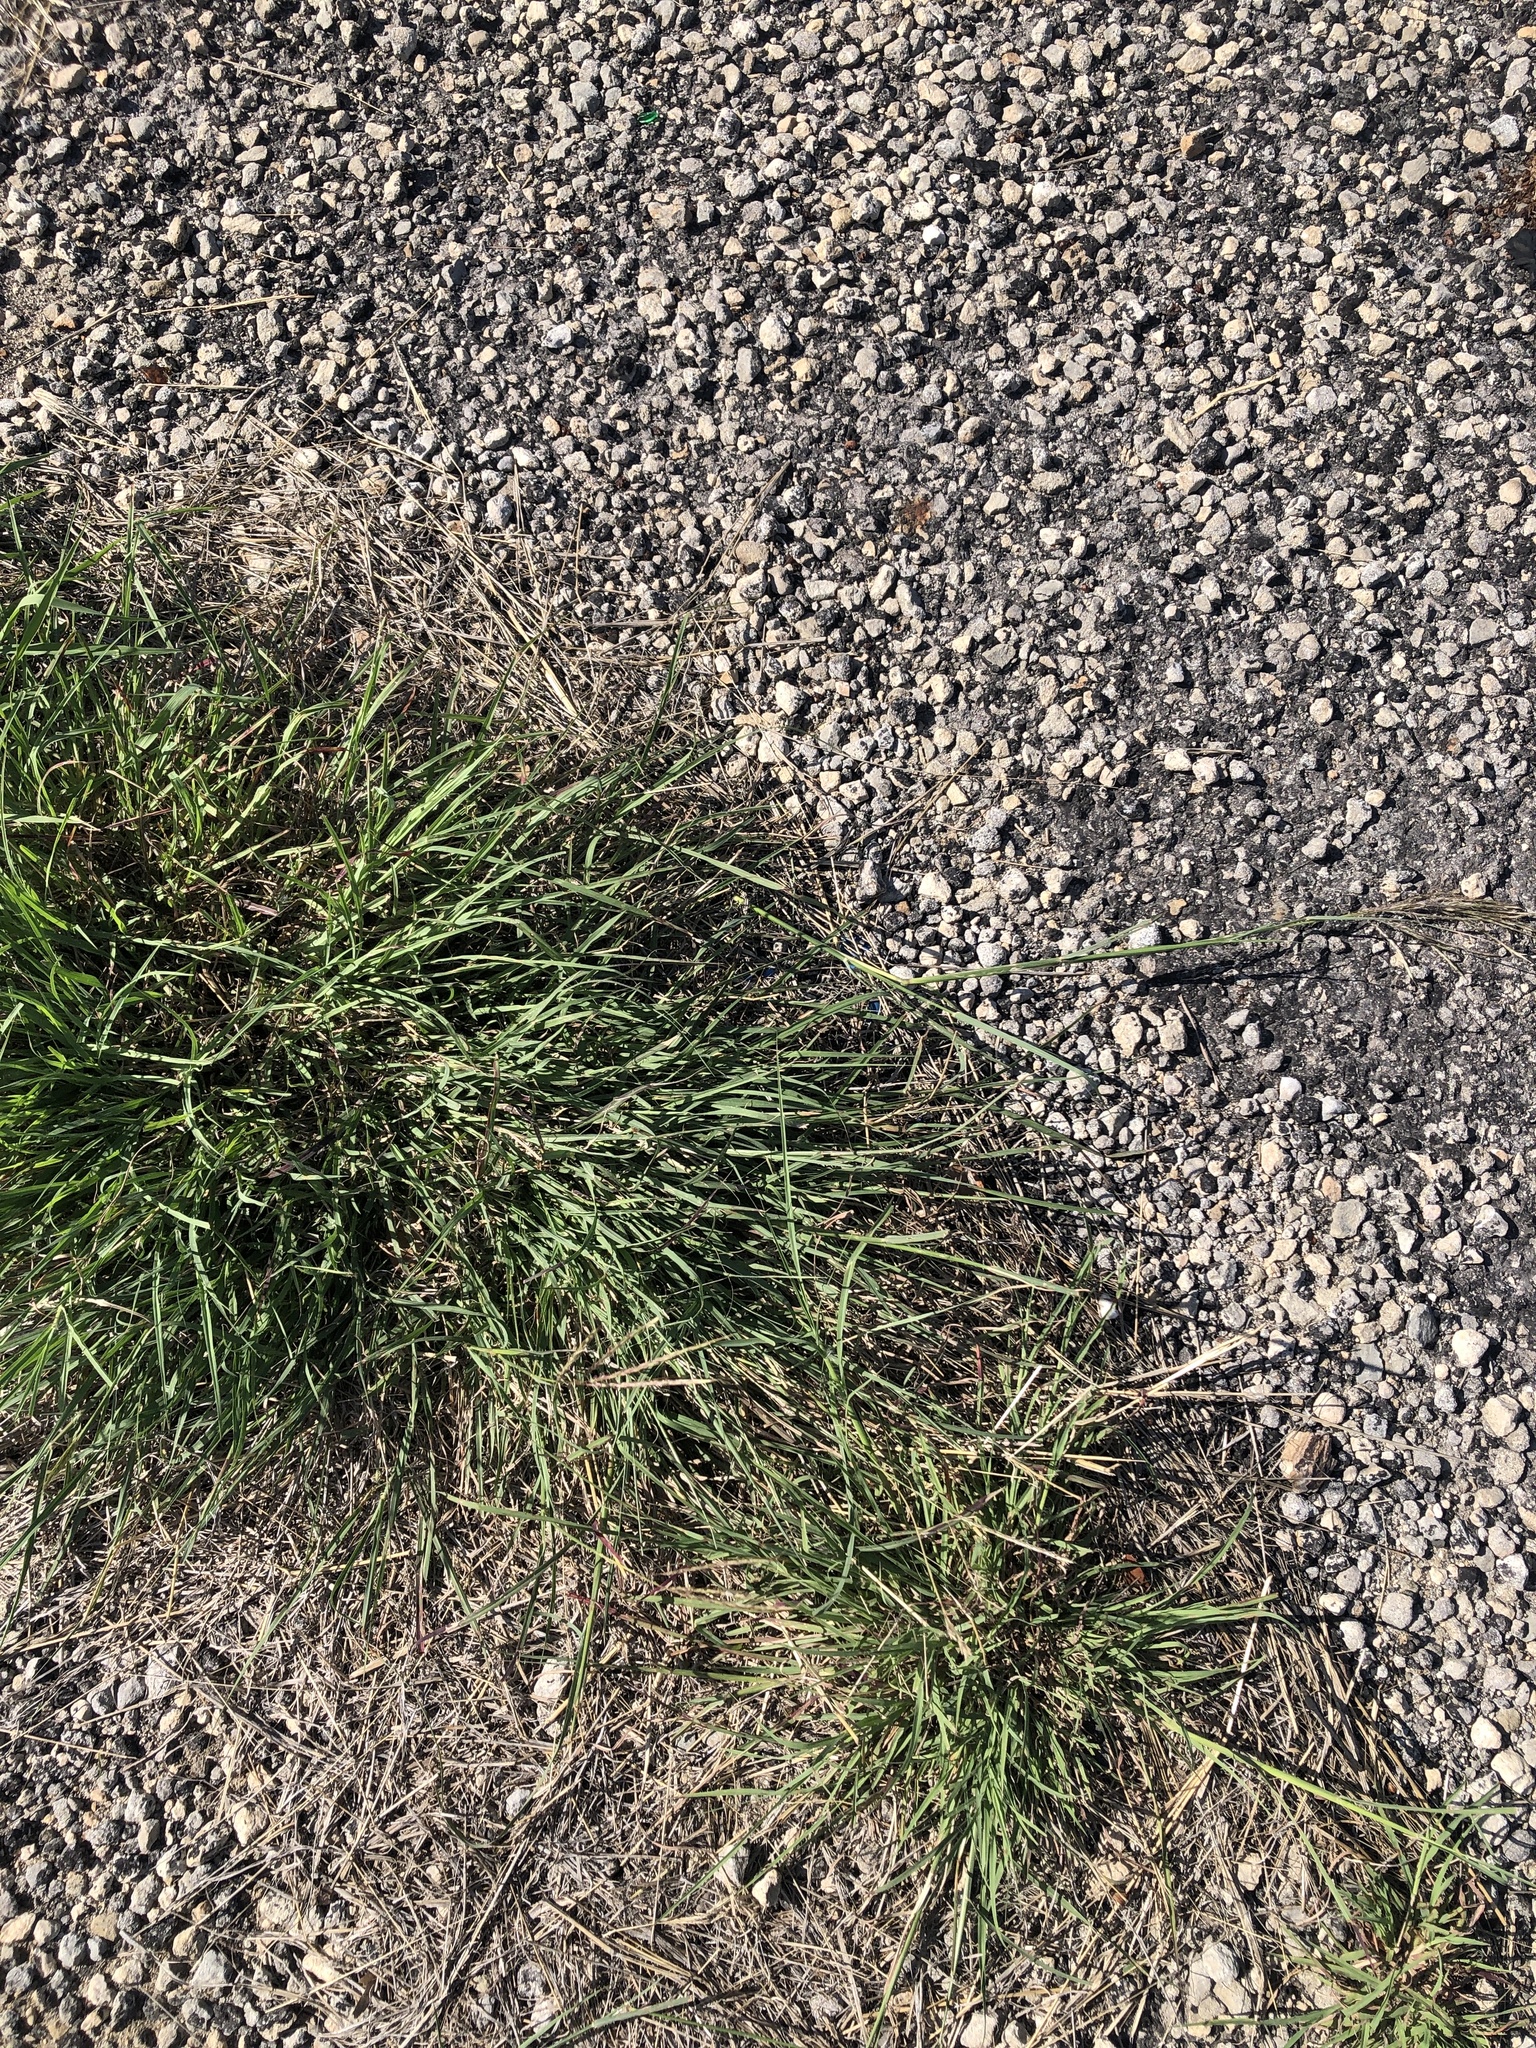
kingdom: Plantae
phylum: Tracheophyta
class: Liliopsida
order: Poales
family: Poaceae
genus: Bothriochloa
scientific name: Bothriochloa ischaemum
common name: Yellow bluestem
